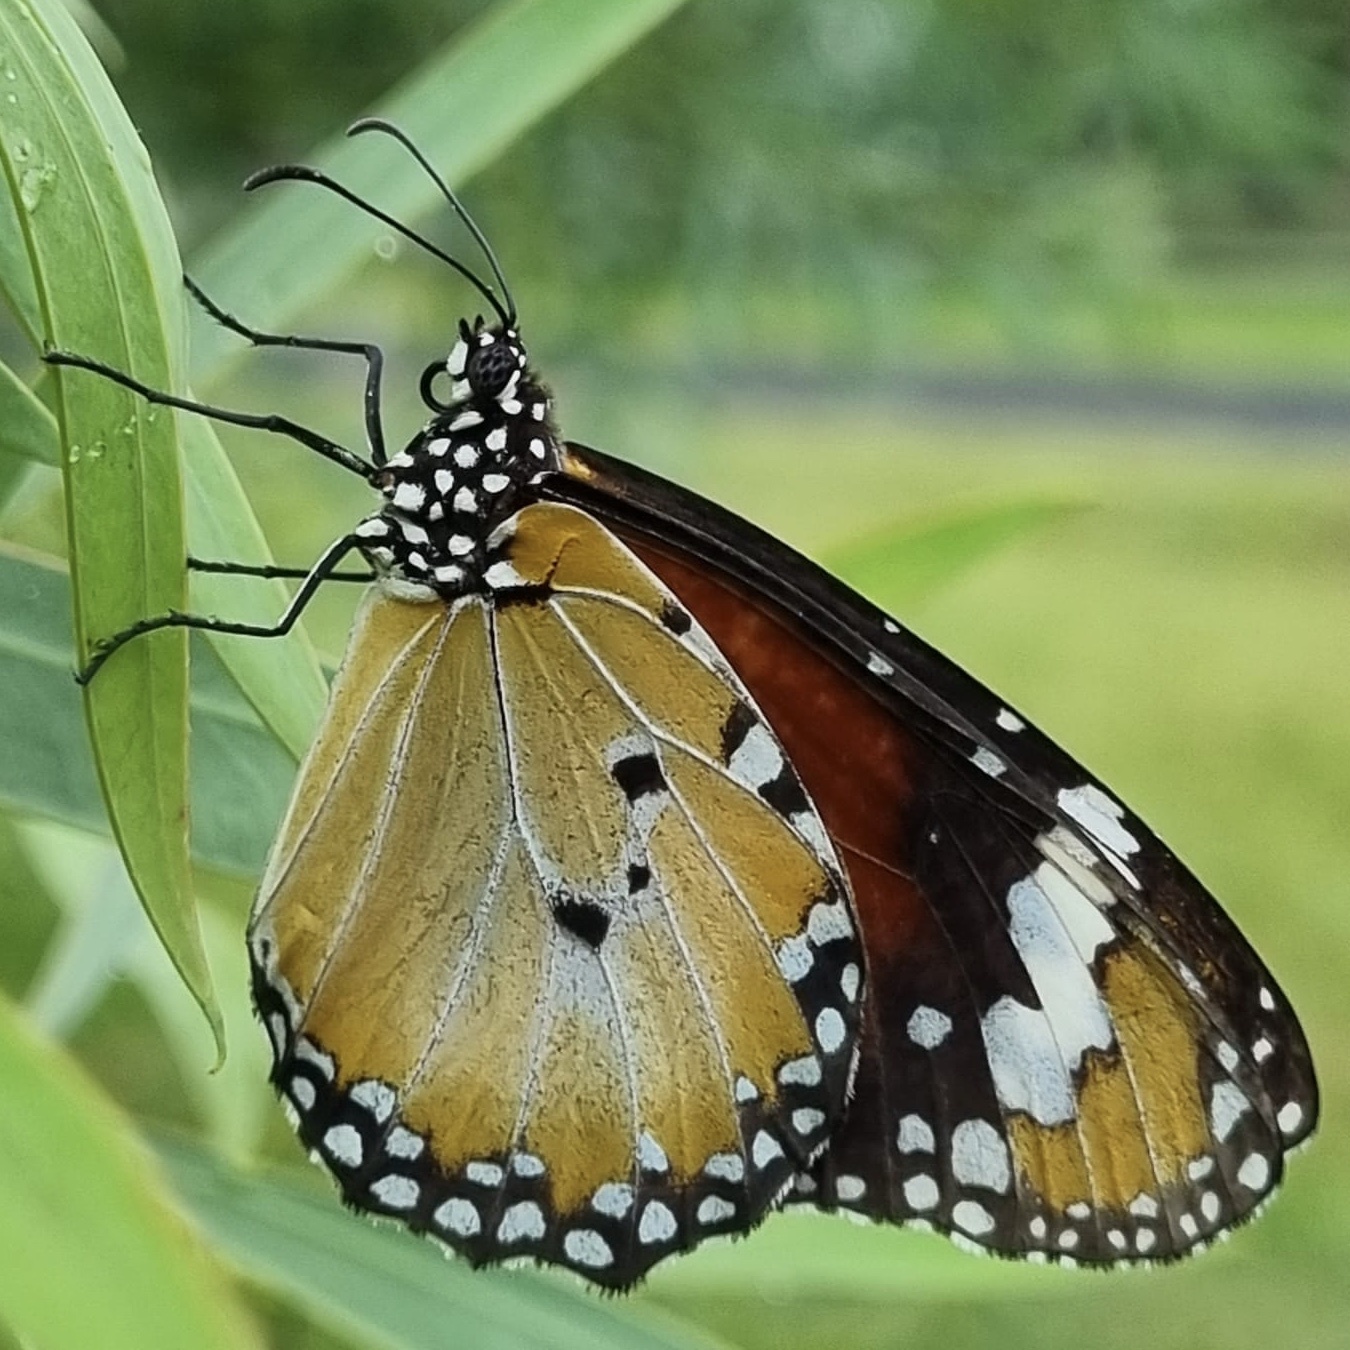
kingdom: Animalia
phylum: Arthropoda
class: Insecta
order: Lepidoptera
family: Nymphalidae
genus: Danaus
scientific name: Danaus chrysippus
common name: Plain tiger
